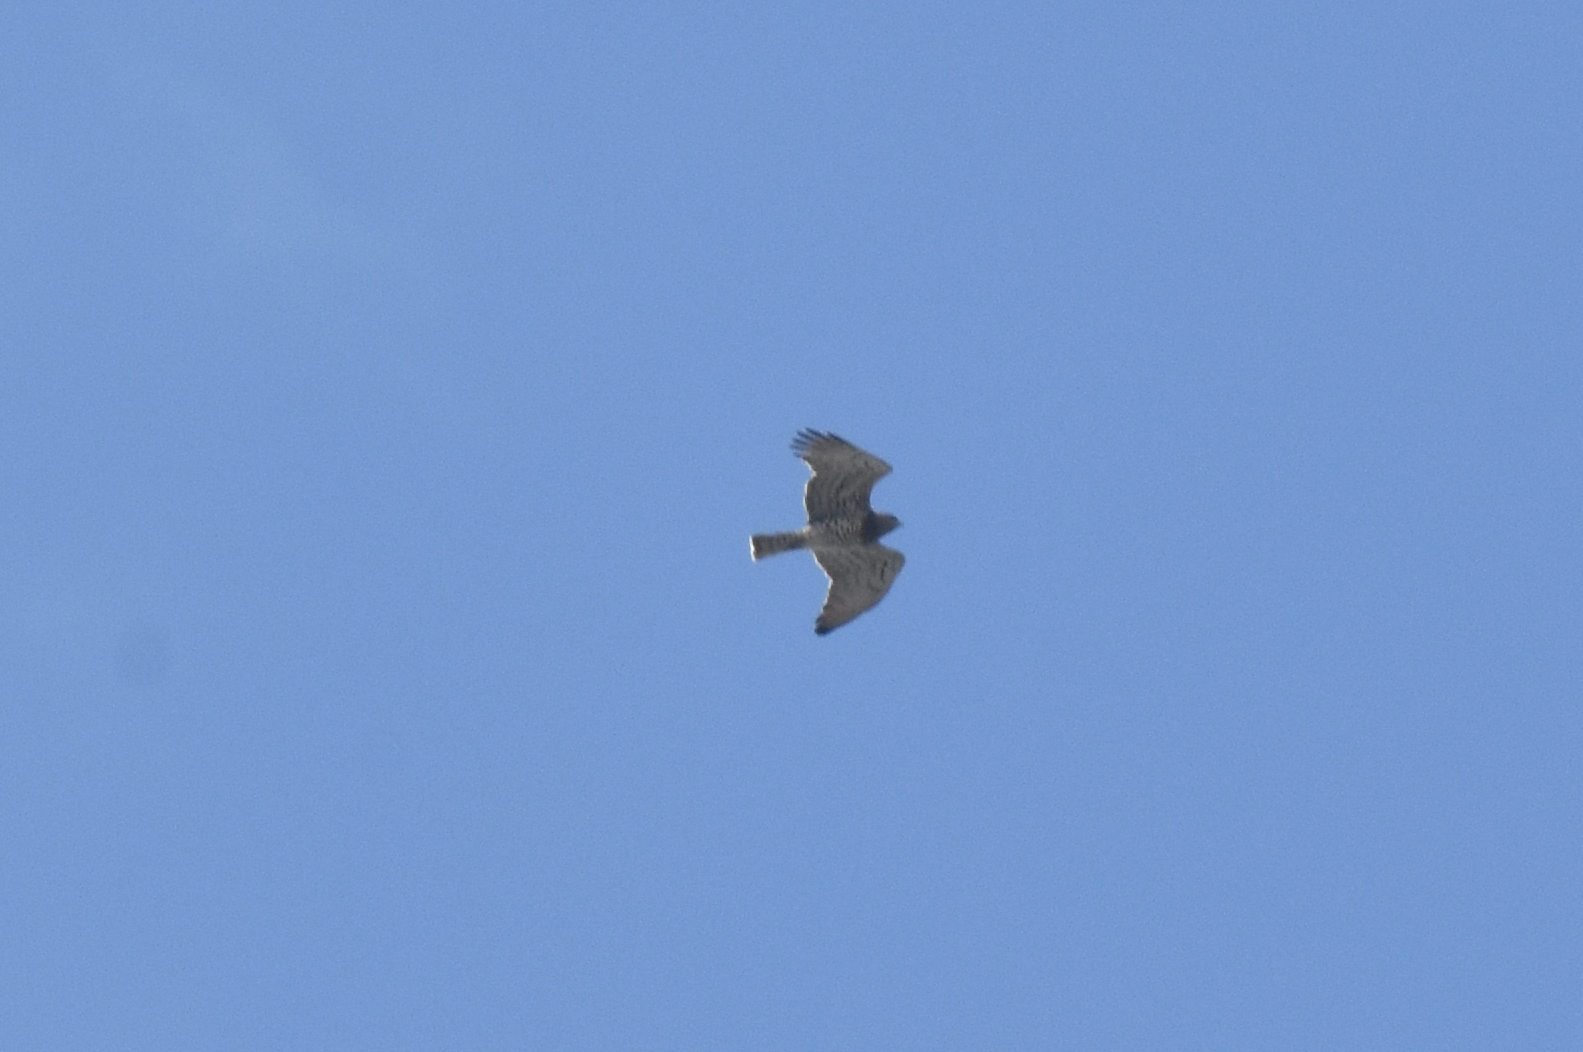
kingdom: Animalia
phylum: Chordata
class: Aves
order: Accipitriformes
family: Accipitridae
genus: Circaetus
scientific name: Circaetus gallicus
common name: Short-toed snake eagle
